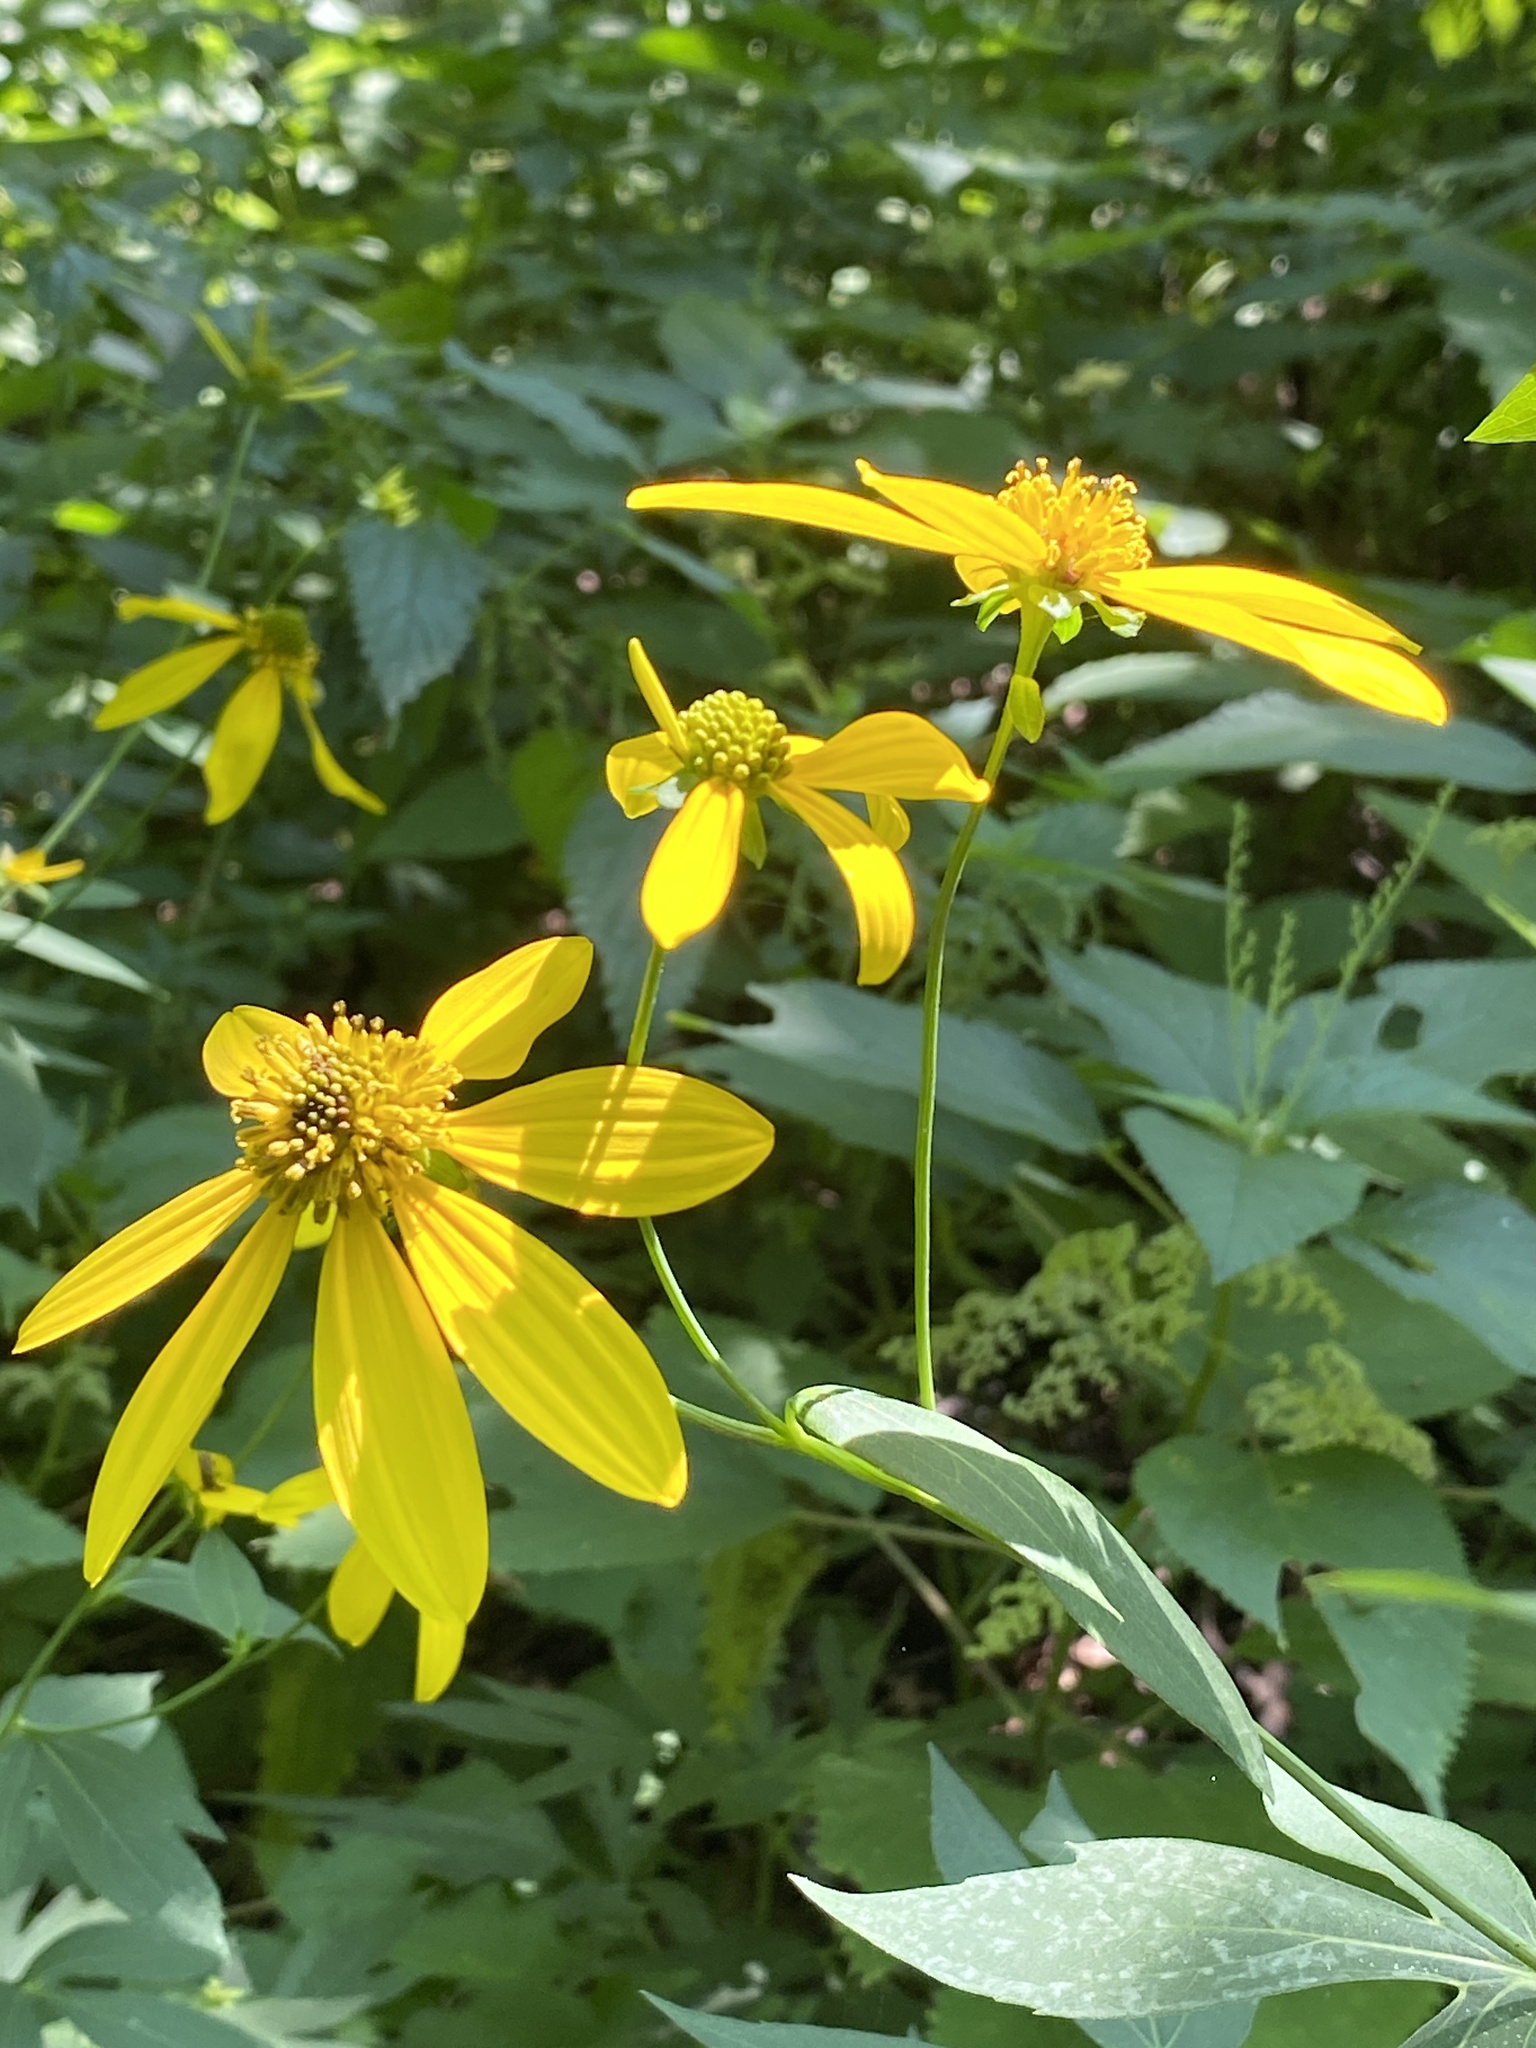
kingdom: Plantae
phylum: Tracheophyta
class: Magnoliopsida
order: Asterales
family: Asteraceae
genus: Rudbeckia
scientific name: Rudbeckia laciniata
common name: Coneflower
